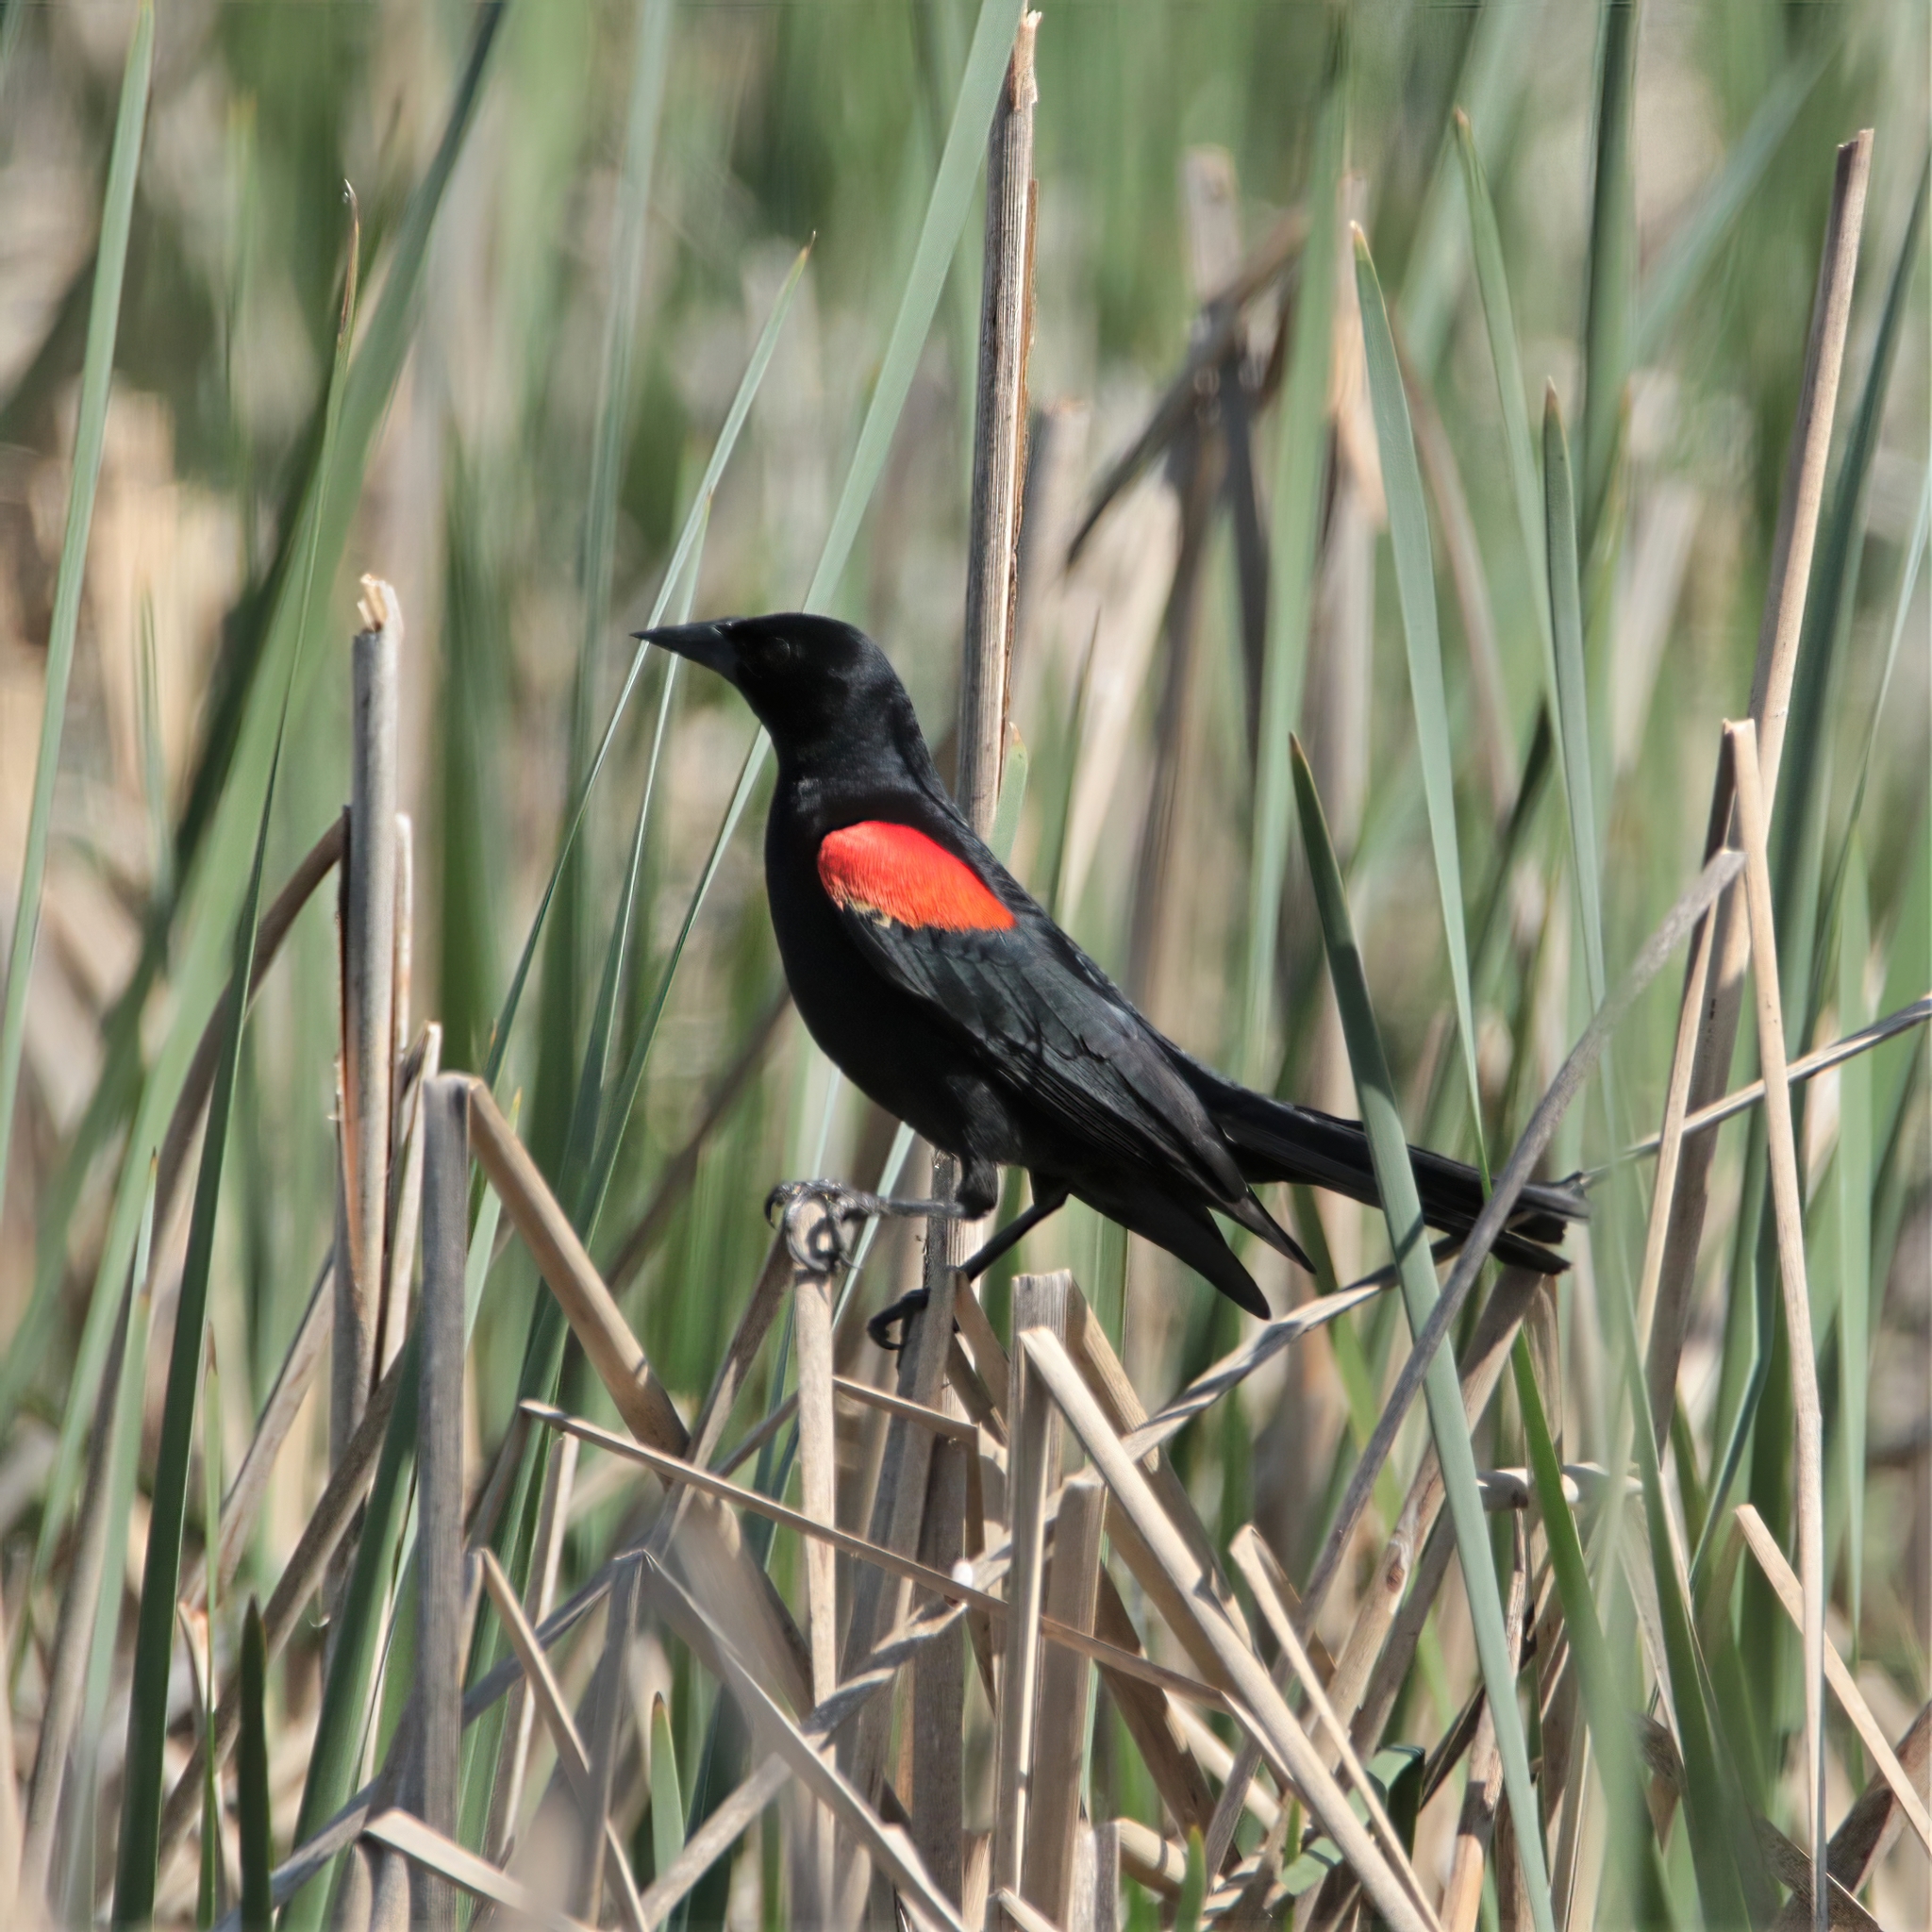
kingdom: Animalia
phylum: Chordata
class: Aves
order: Passeriformes
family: Icteridae
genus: Agelaius
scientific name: Agelaius phoeniceus
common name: Red-winged blackbird
